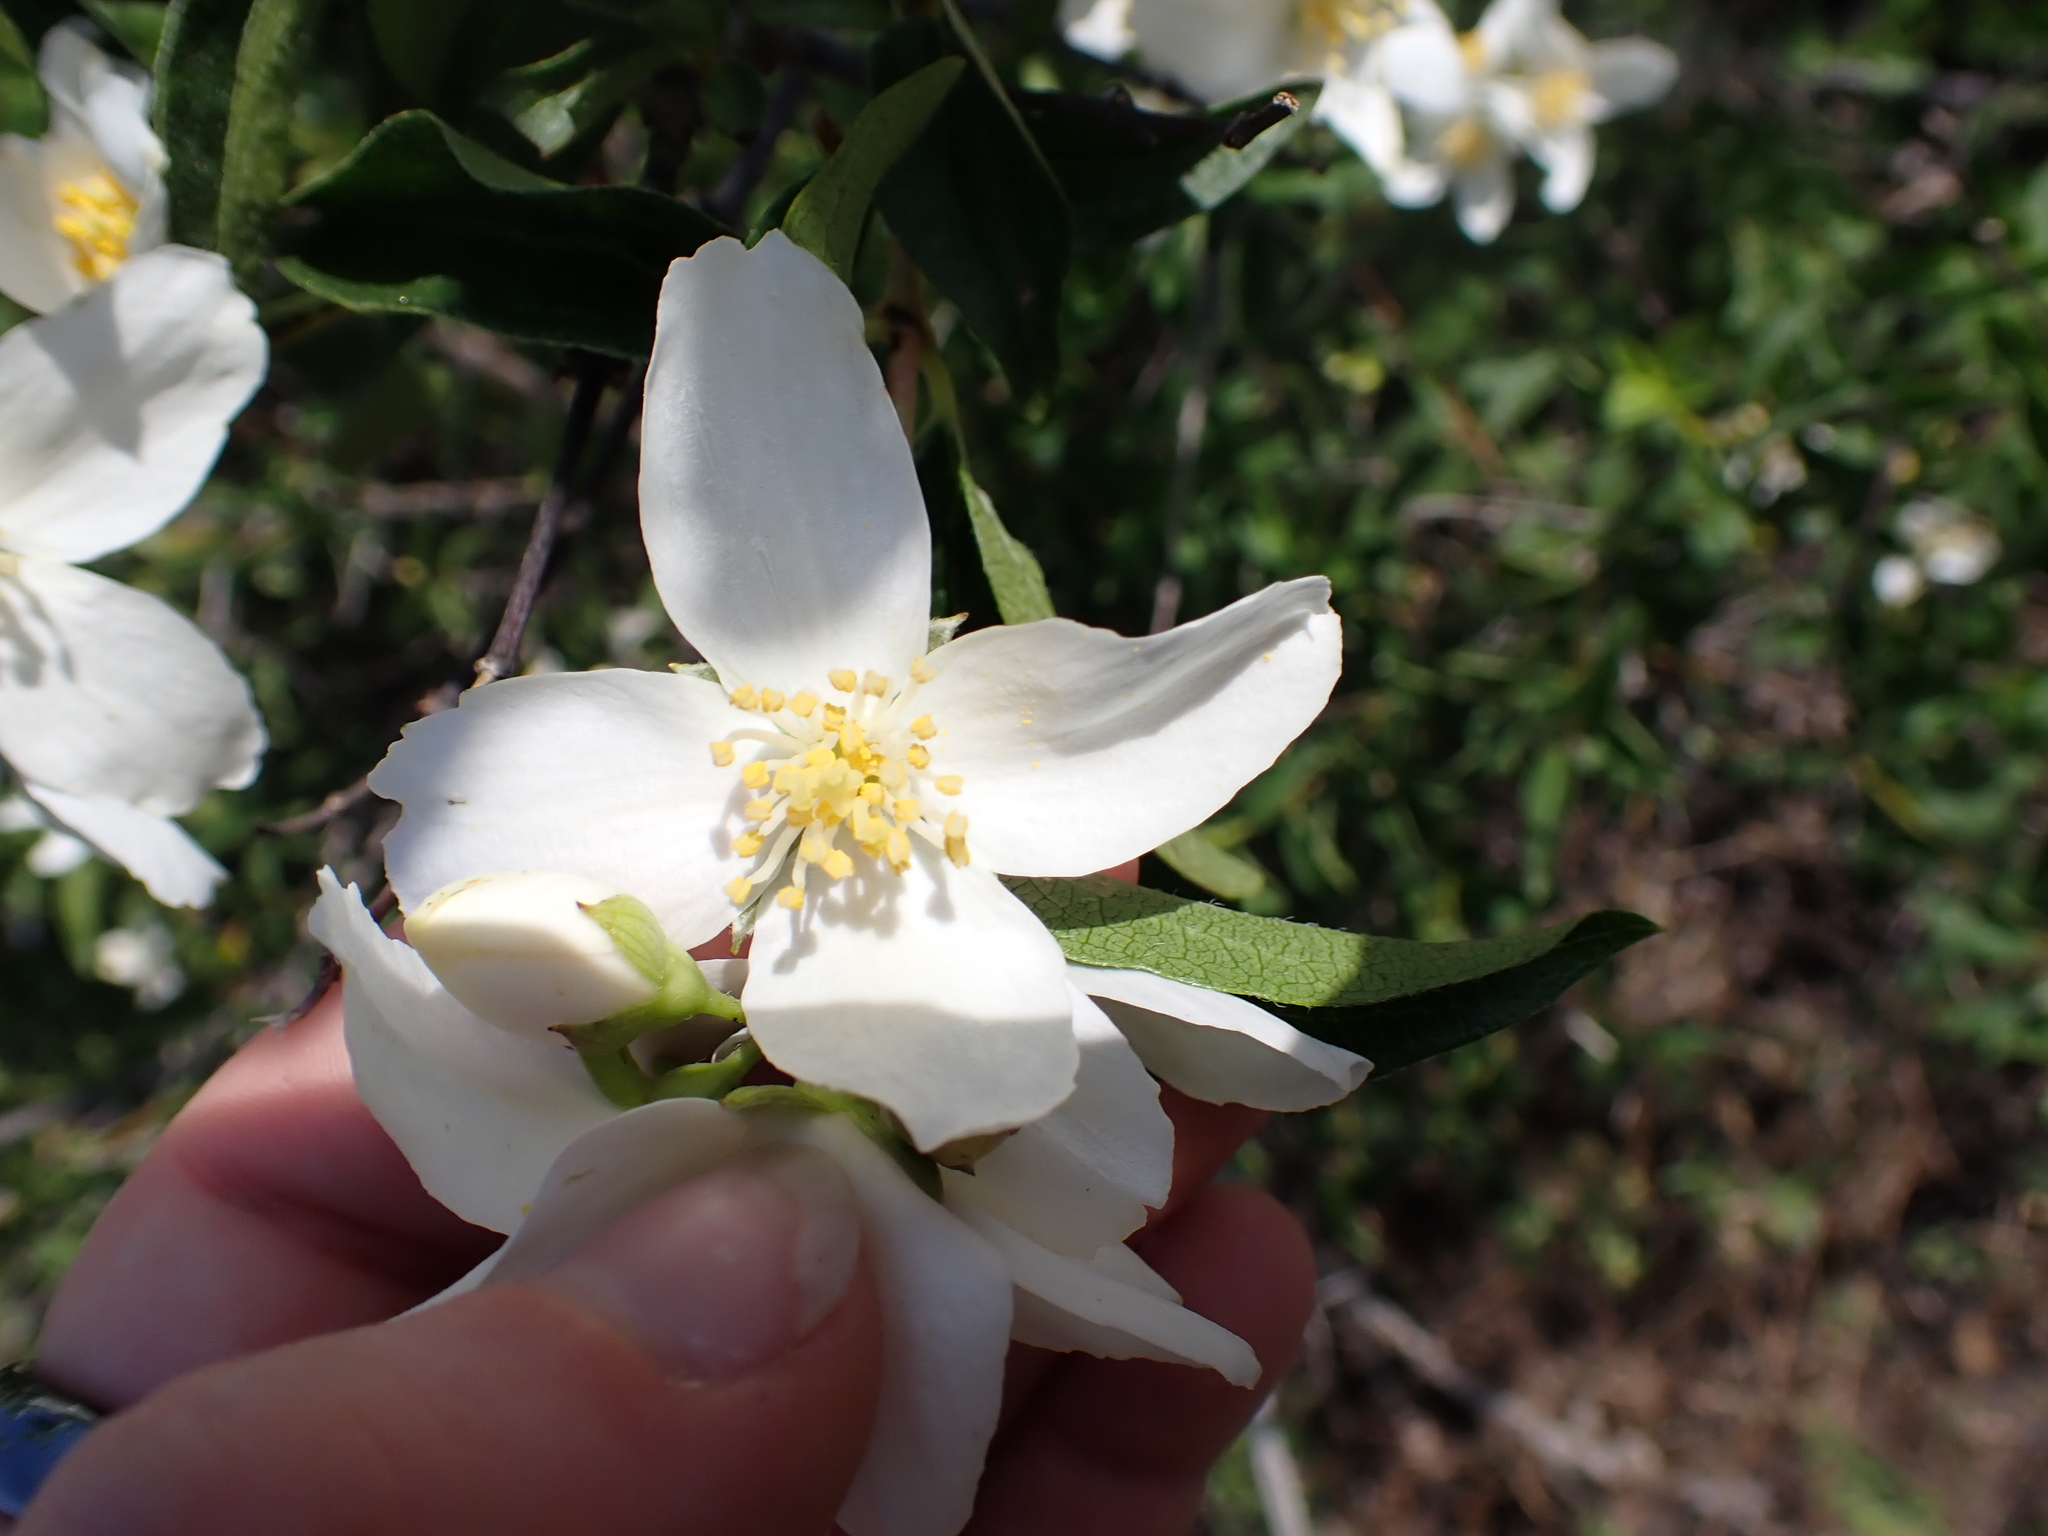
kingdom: Plantae
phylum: Tracheophyta
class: Magnoliopsida
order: Cornales
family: Hydrangeaceae
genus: Philadelphus
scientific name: Philadelphus lewisii
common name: Lewis's mock orange
